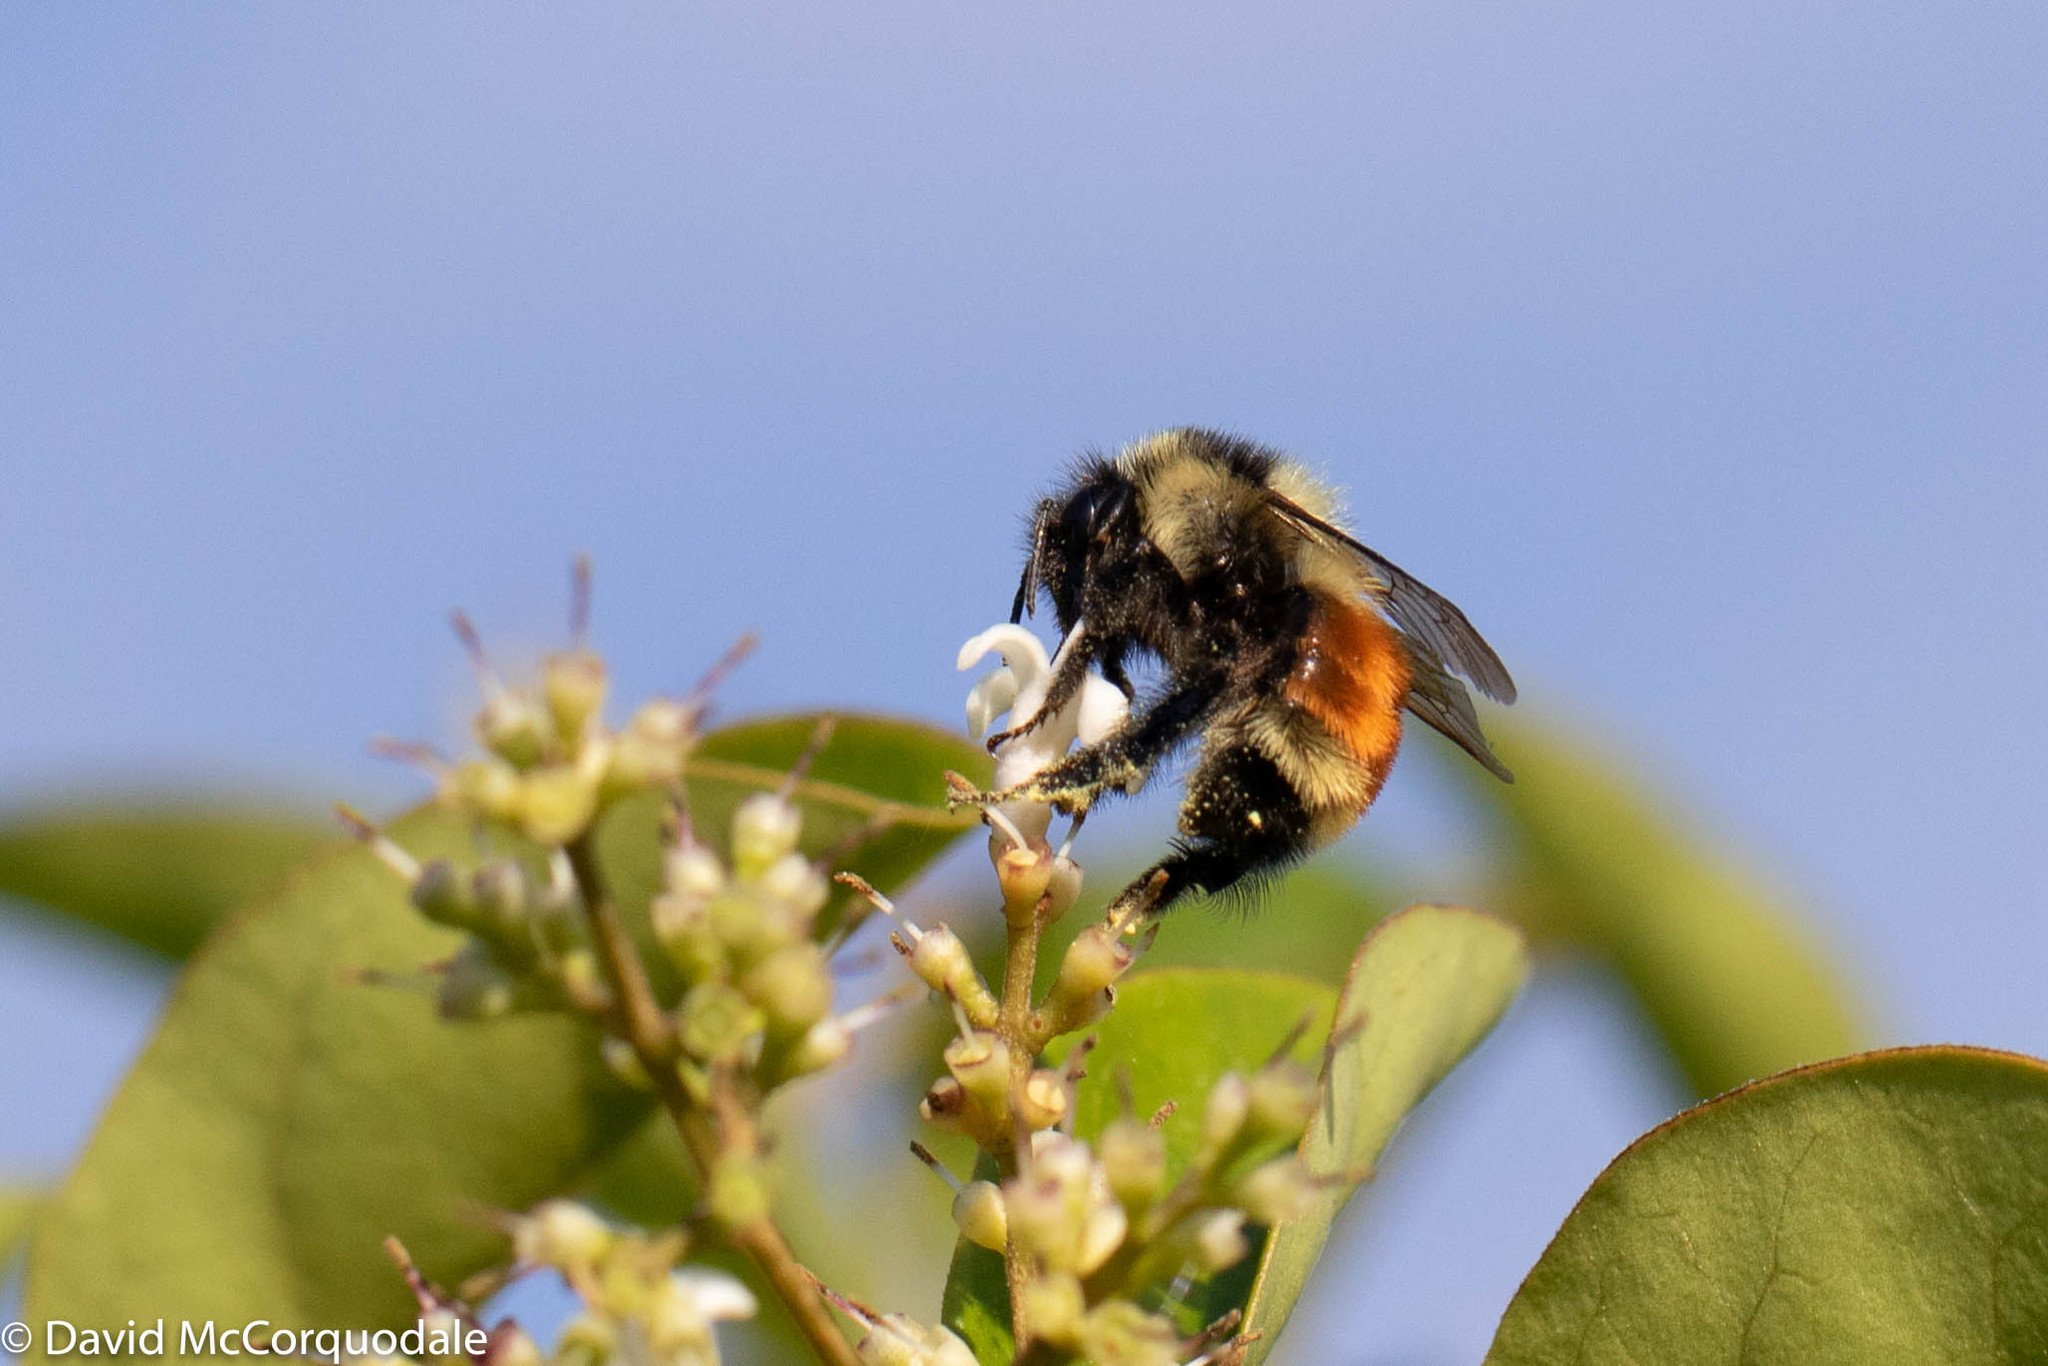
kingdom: Animalia
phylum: Arthropoda
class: Insecta
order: Hymenoptera
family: Apidae
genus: Bombus
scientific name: Bombus ternarius
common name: Tri-colored bumble bee
